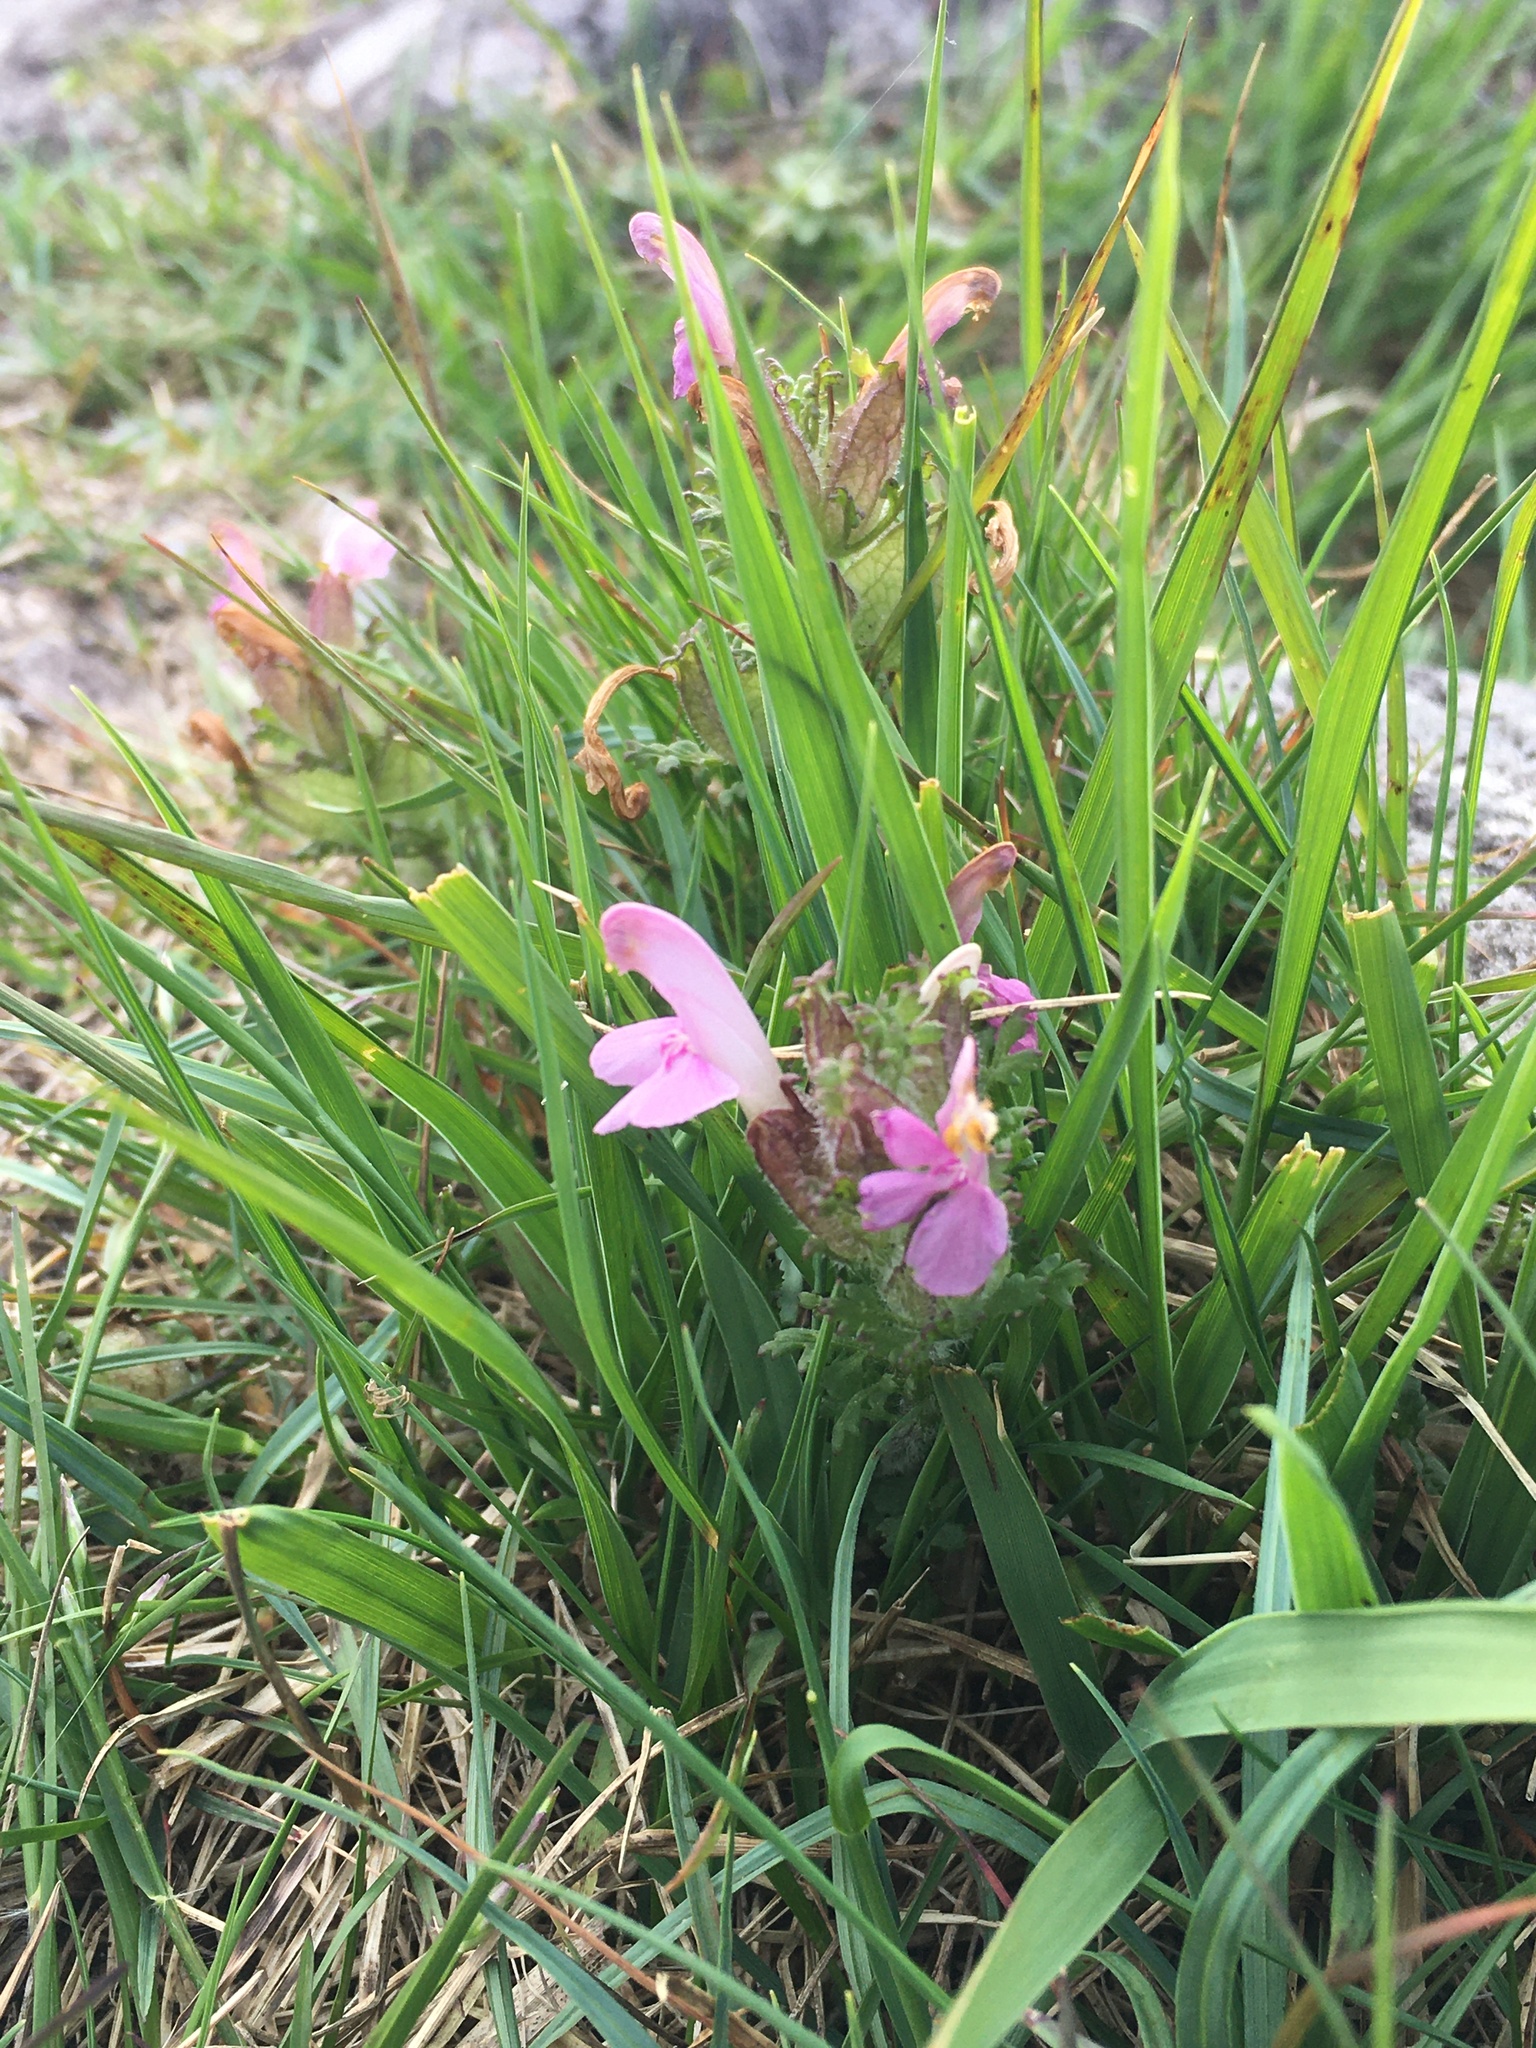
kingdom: Plantae
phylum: Tracheophyta
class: Magnoliopsida
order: Lamiales
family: Orobanchaceae
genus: Pedicularis
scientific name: Pedicularis sylvatica
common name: Lousewort
